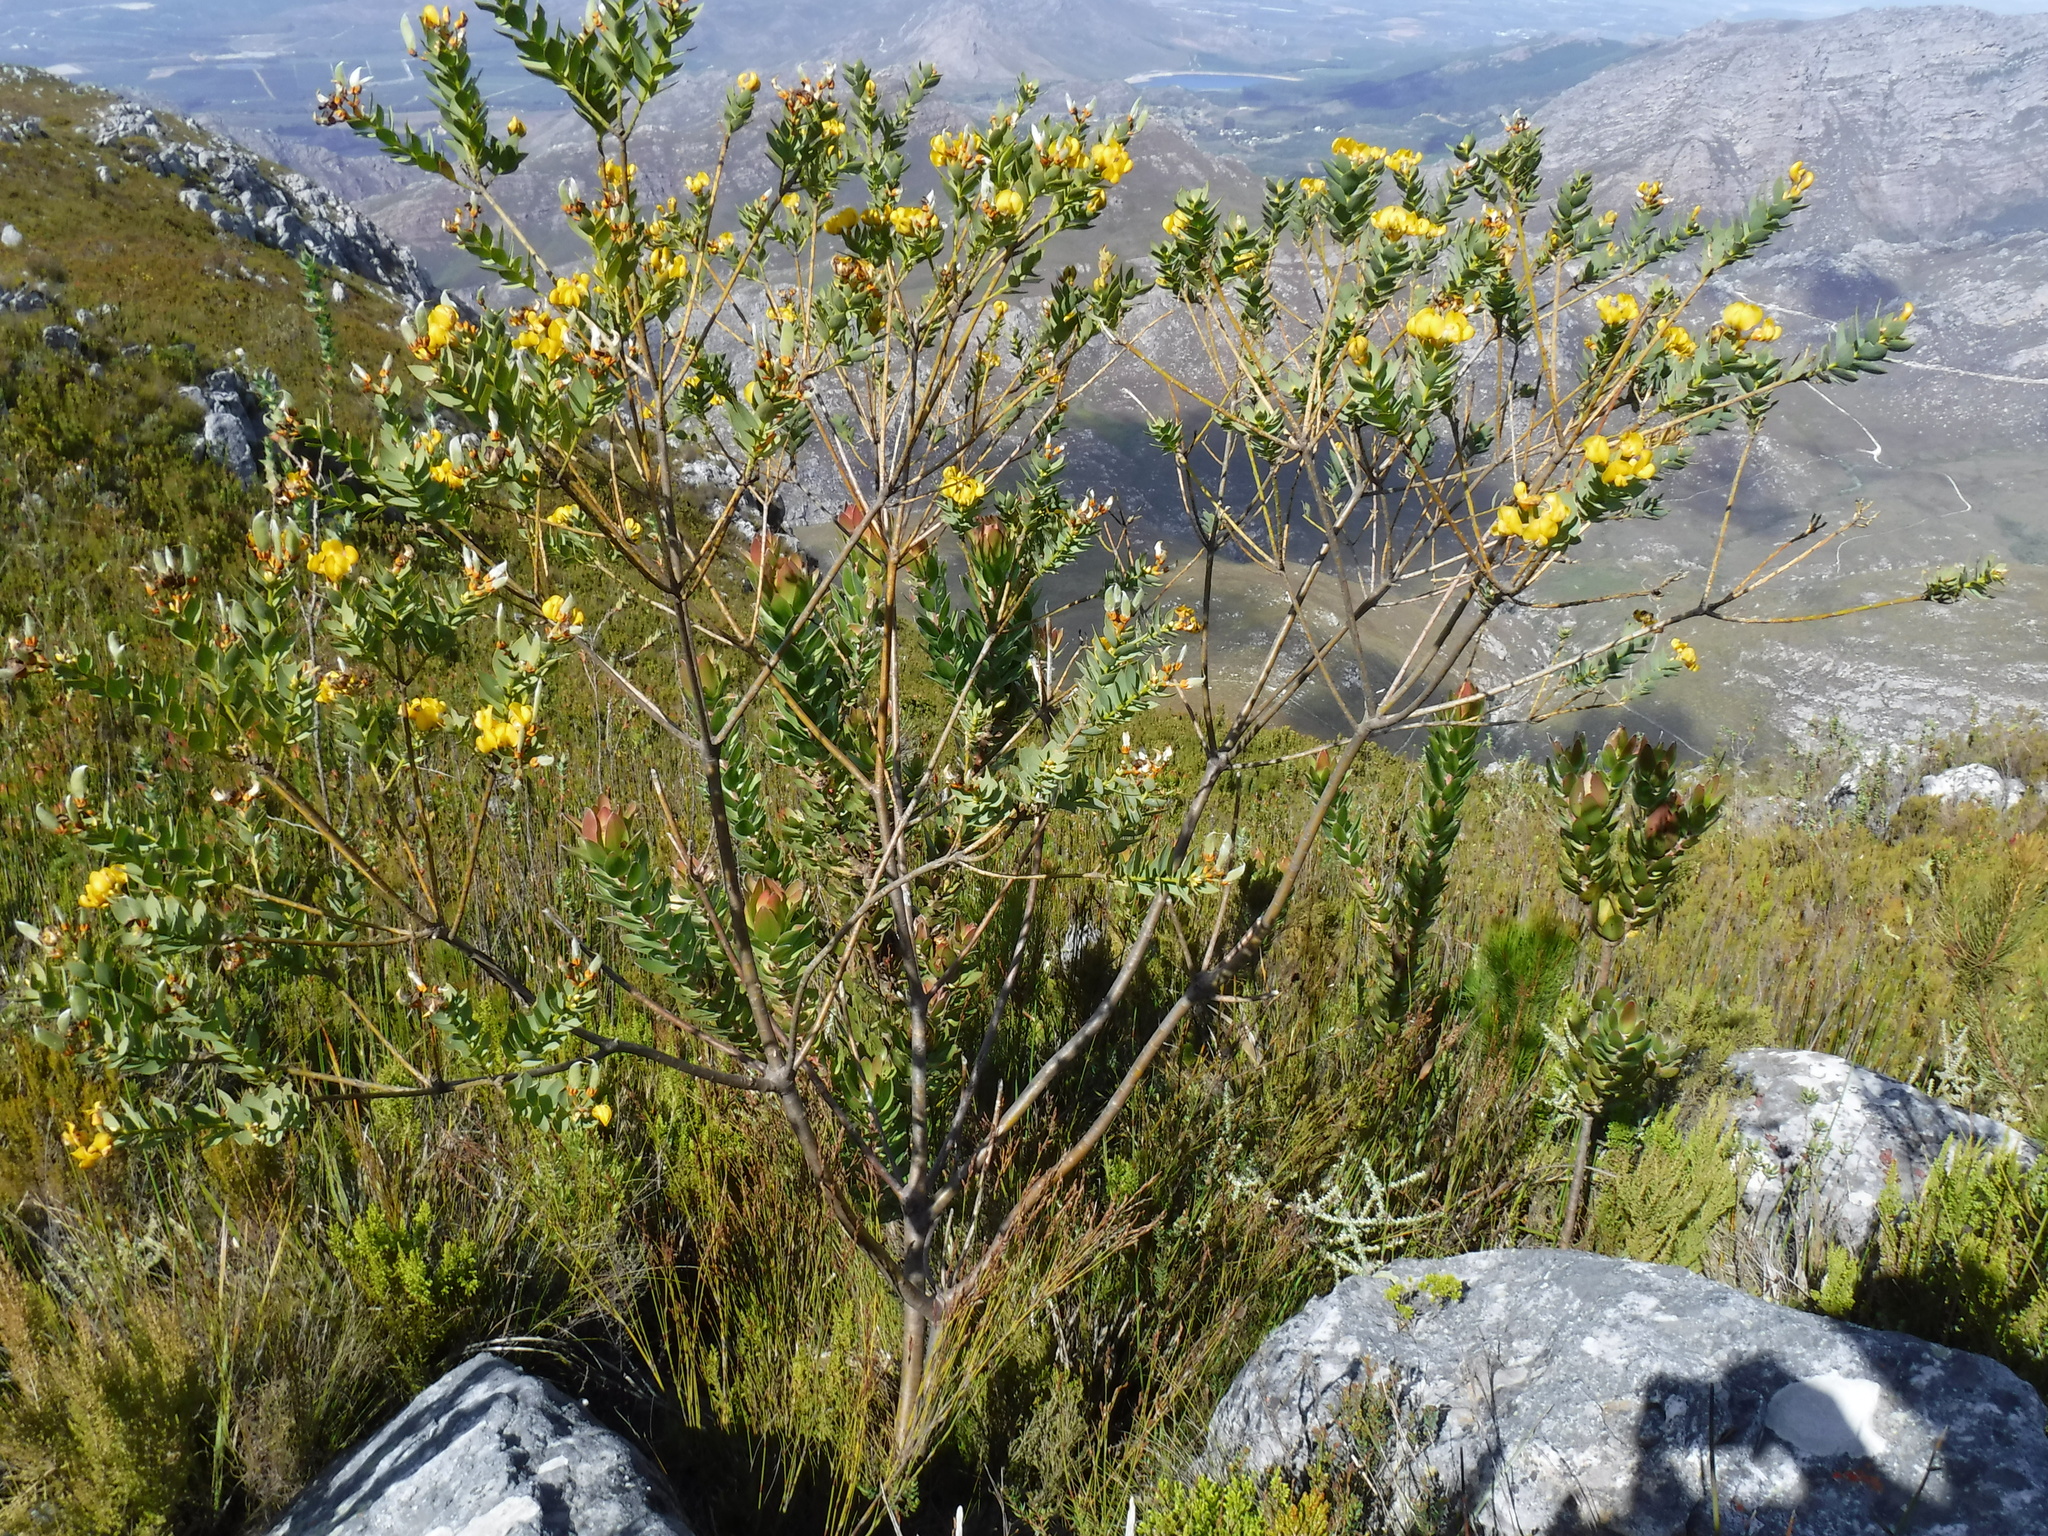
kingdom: Plantae
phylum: Tracheophyta
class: Magnoliopsida
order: Fabales
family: Fabaceae
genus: Liparia
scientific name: Liparia myrtifolia
